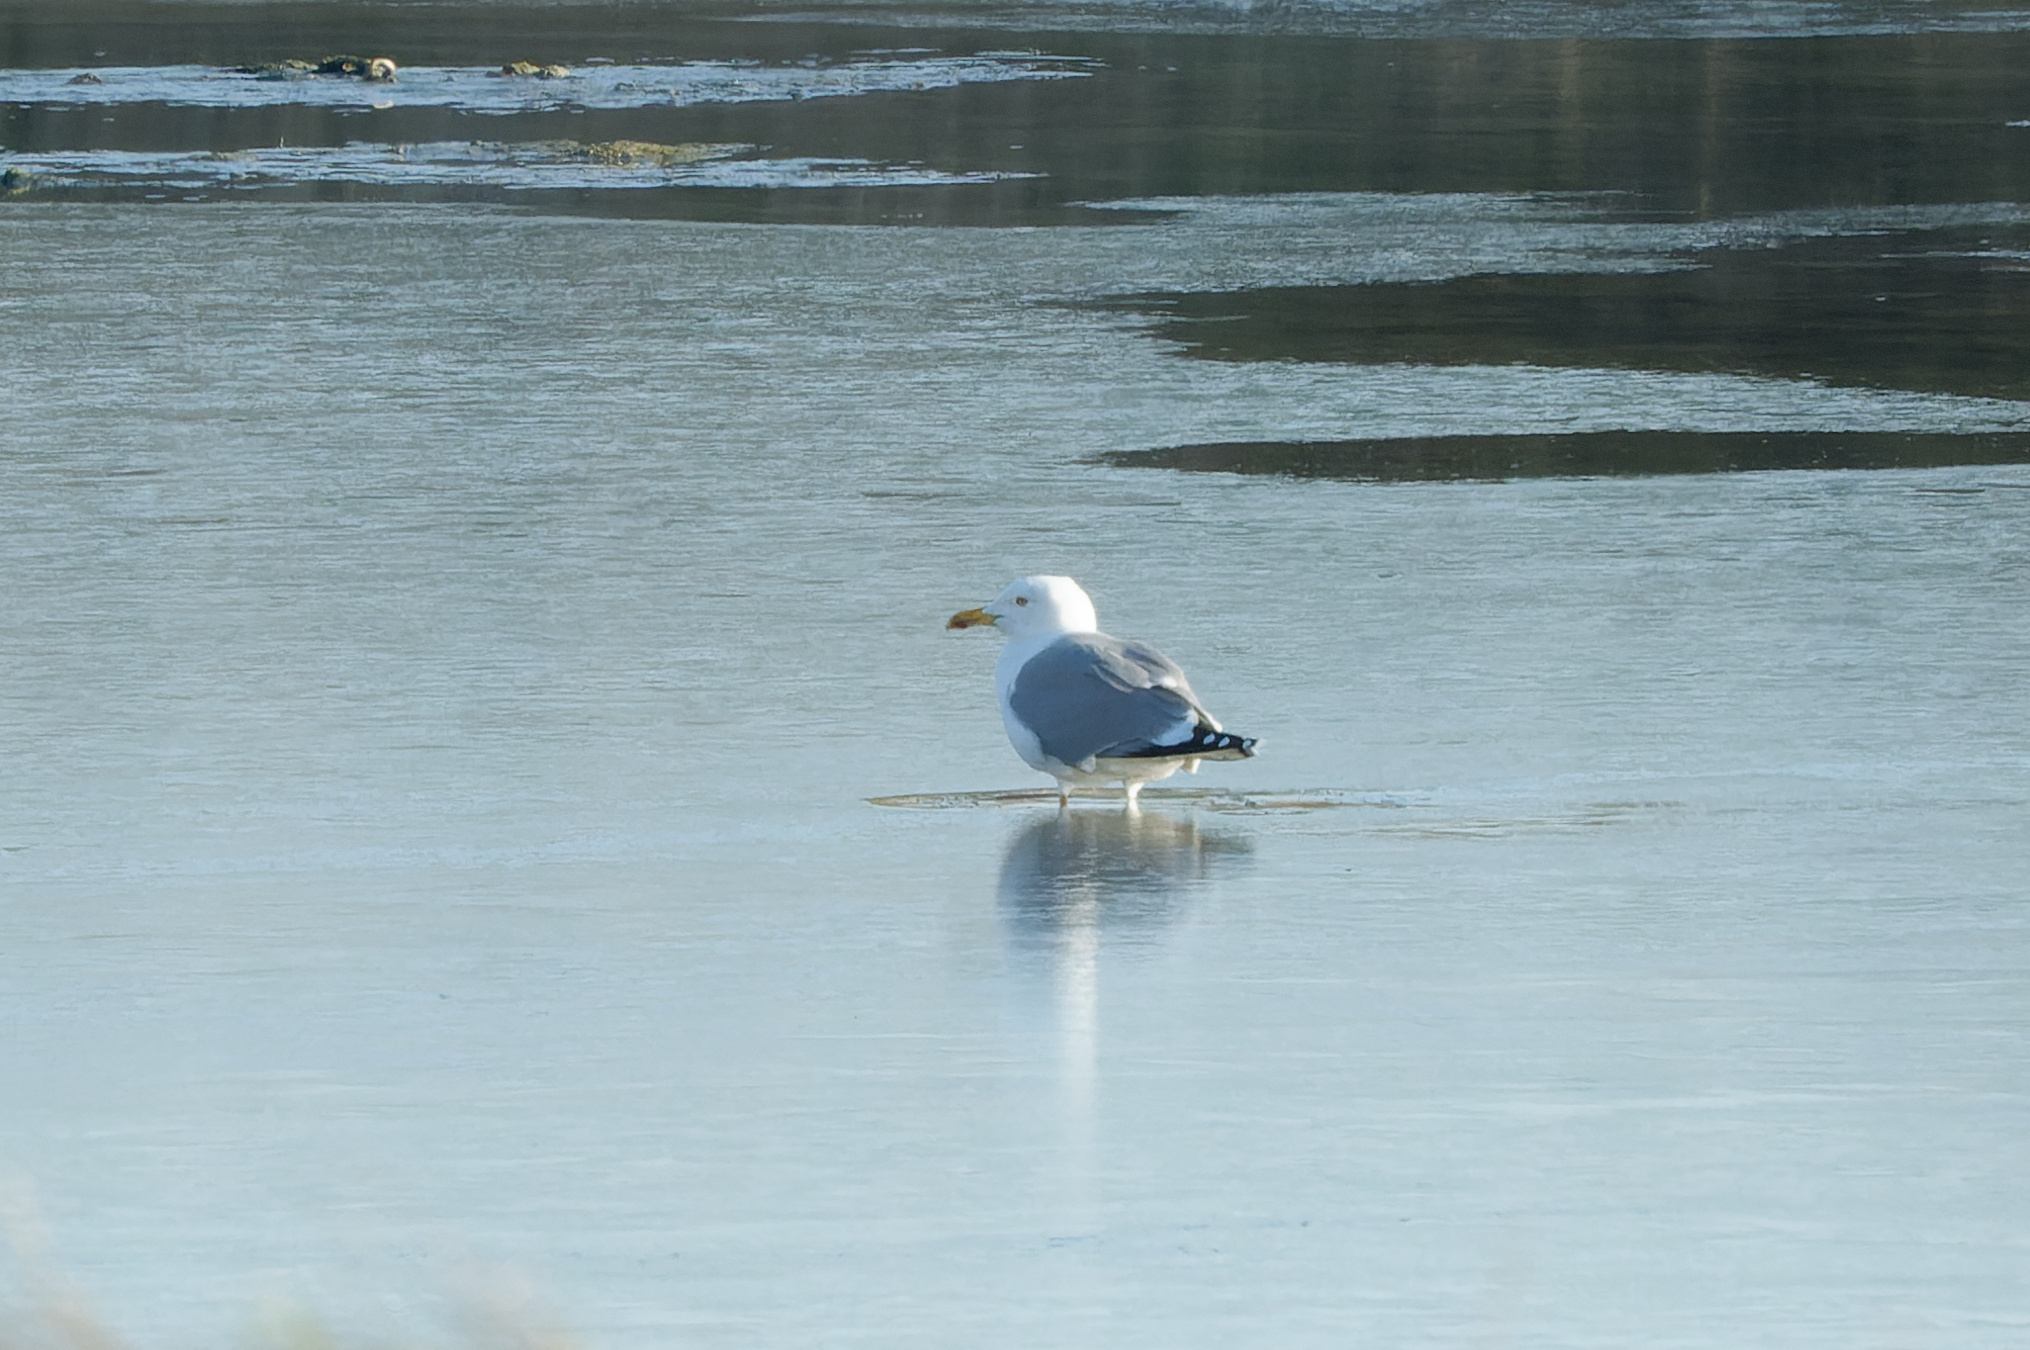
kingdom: Animalia
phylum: Chordata
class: Aves
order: Charadriiformes
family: Laridae
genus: Larus
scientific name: Larus michahellis
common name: Yellow-legged gull
